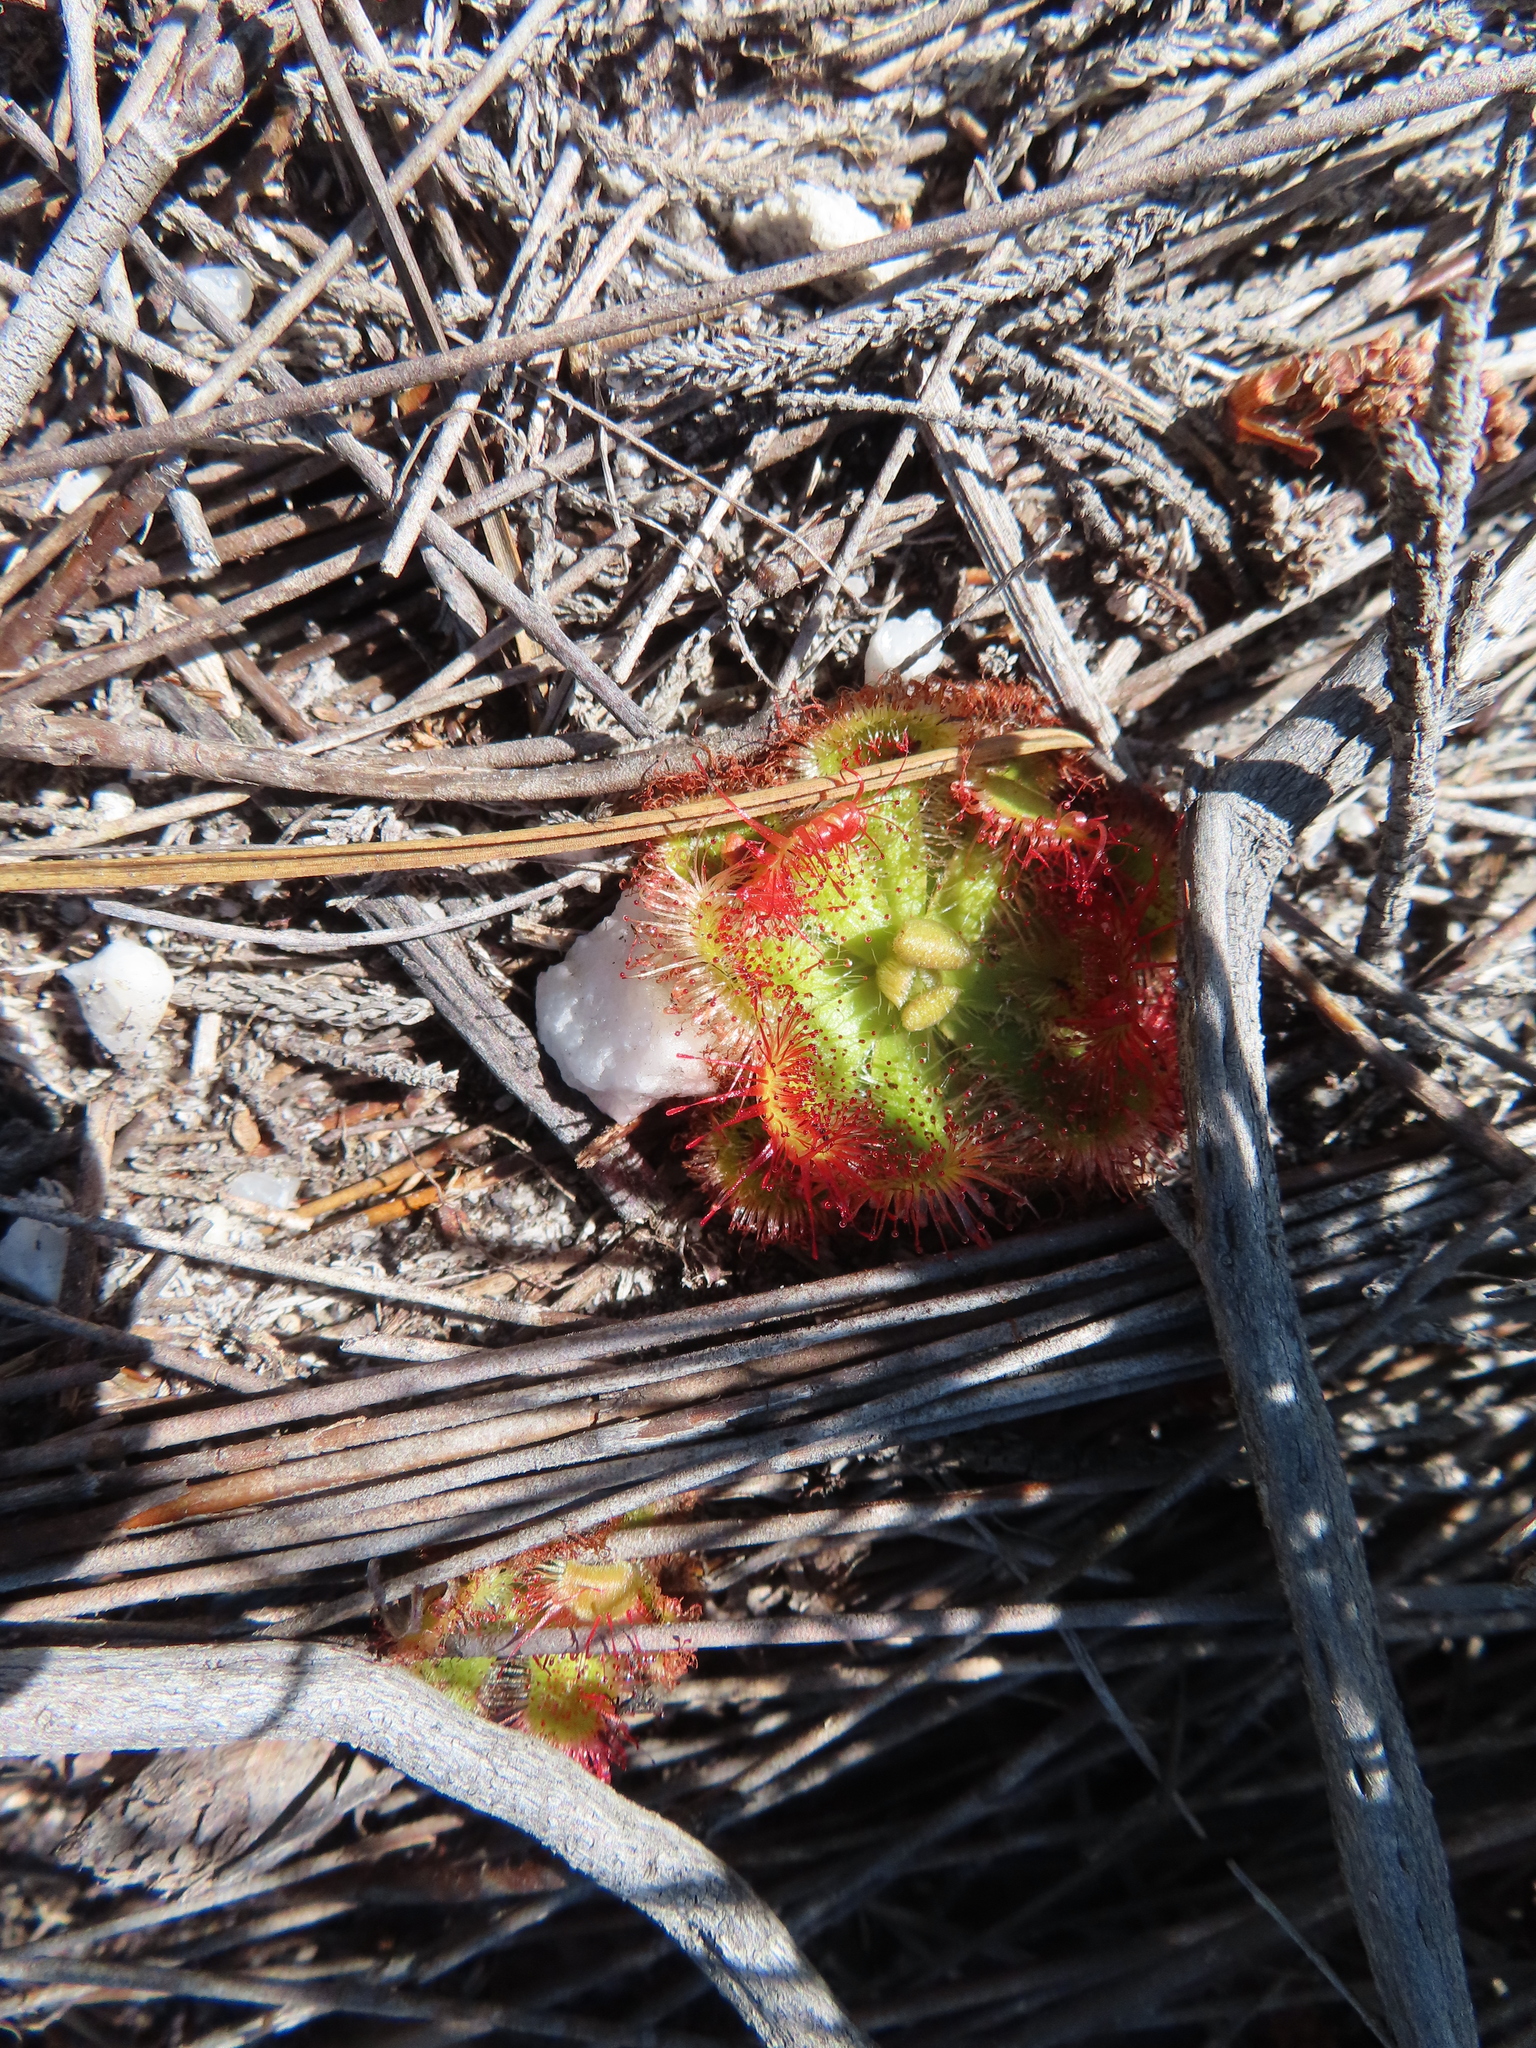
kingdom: Plantae
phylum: Tracheophyta
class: Magnoliopsida
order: Caryophyllales
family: Droseraceae
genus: Drosera
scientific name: Drosera xerophila
